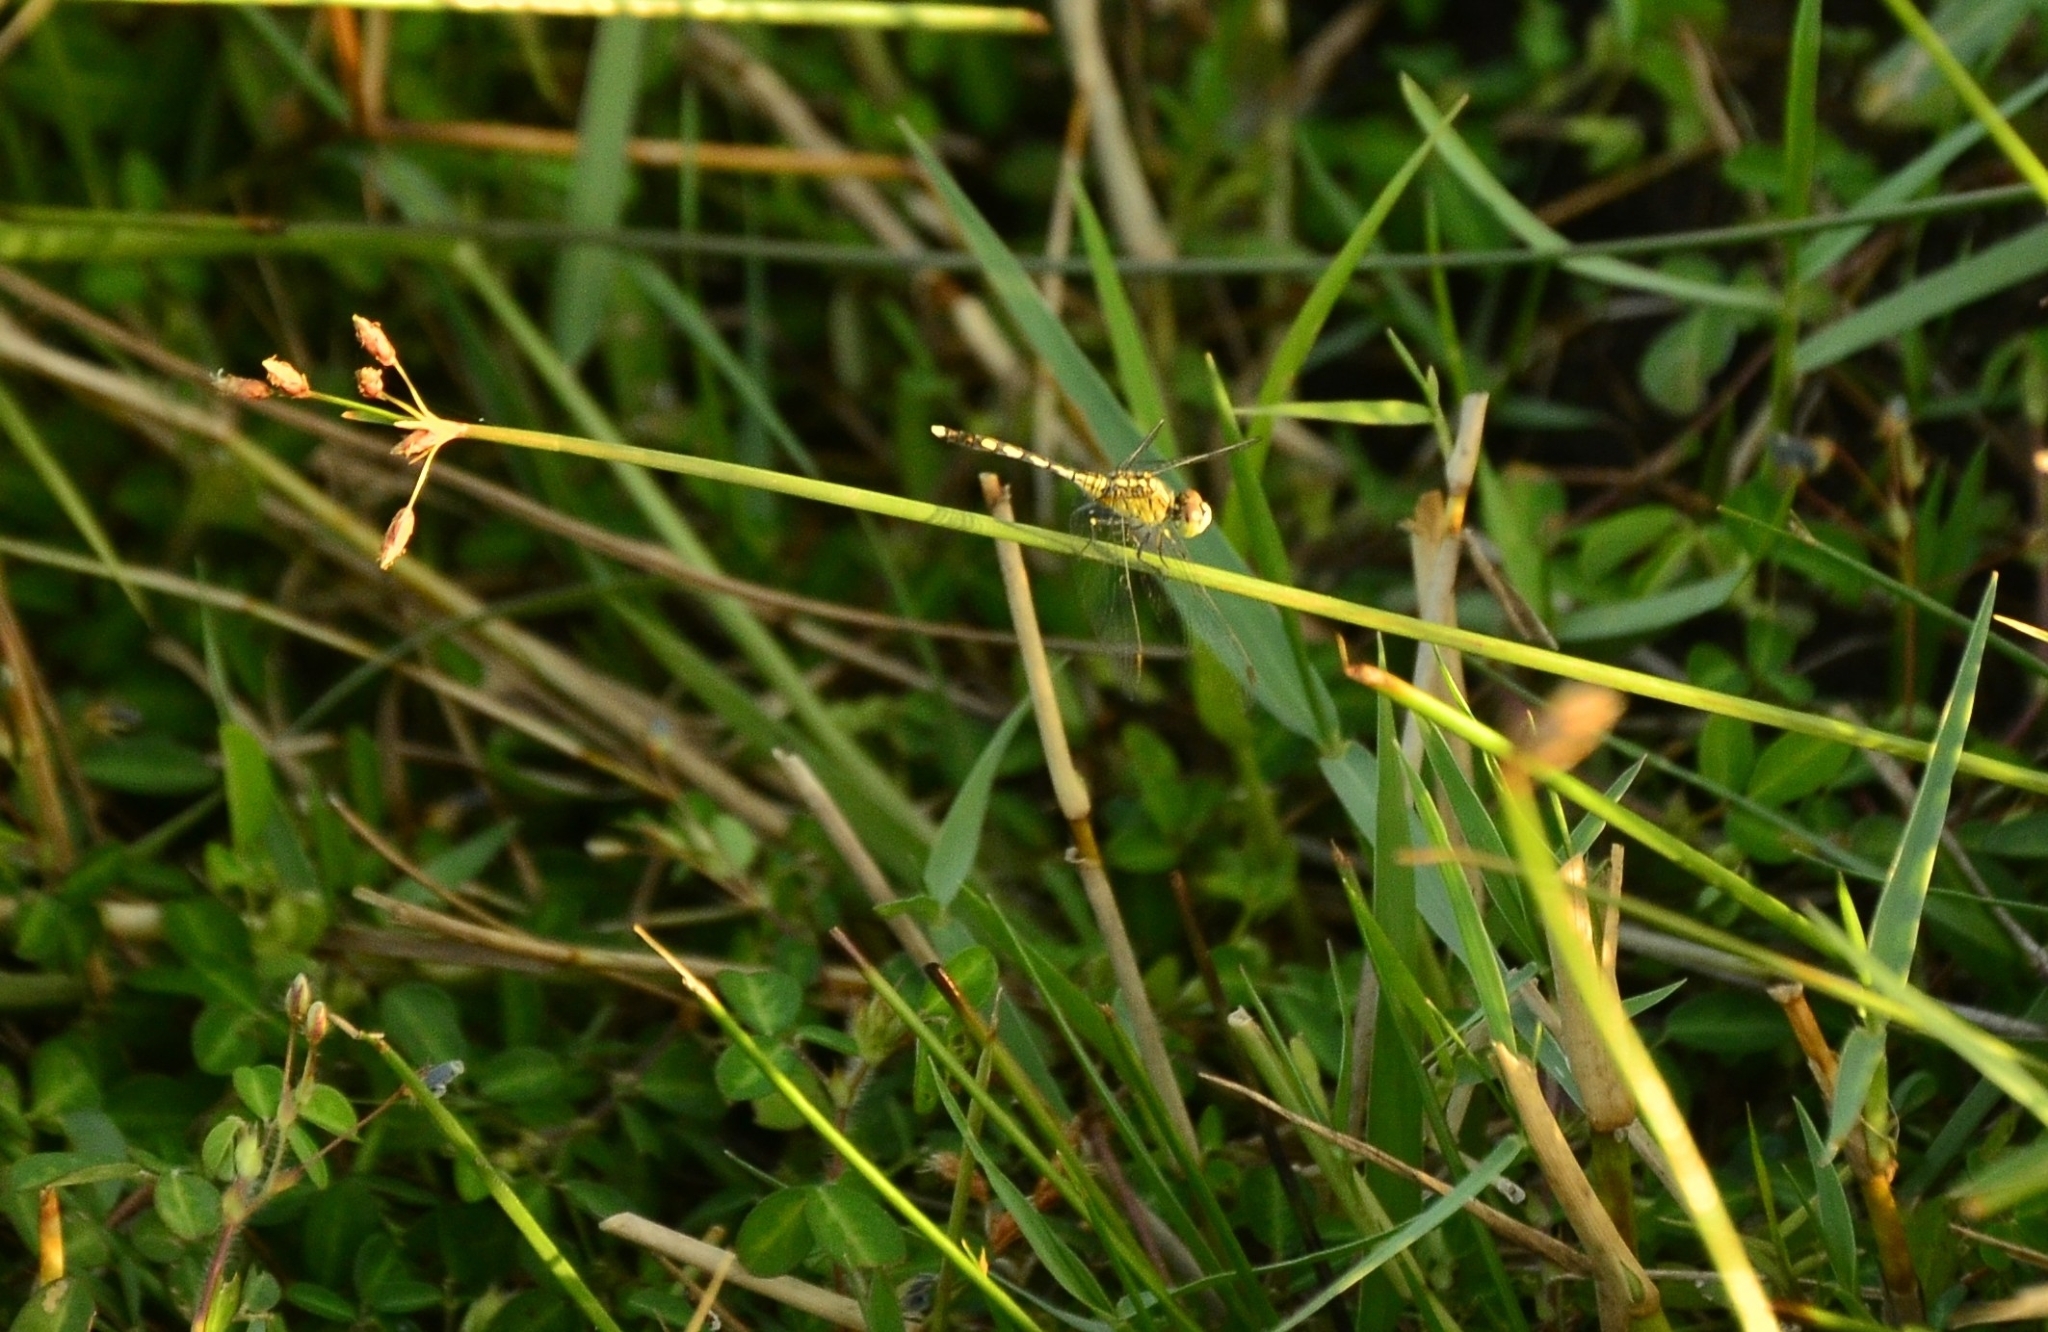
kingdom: Animalia
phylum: Arthropoda
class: Insecta
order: Odonata
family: Libellulidae
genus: Diplacodes
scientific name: Diplacodes trivialis
